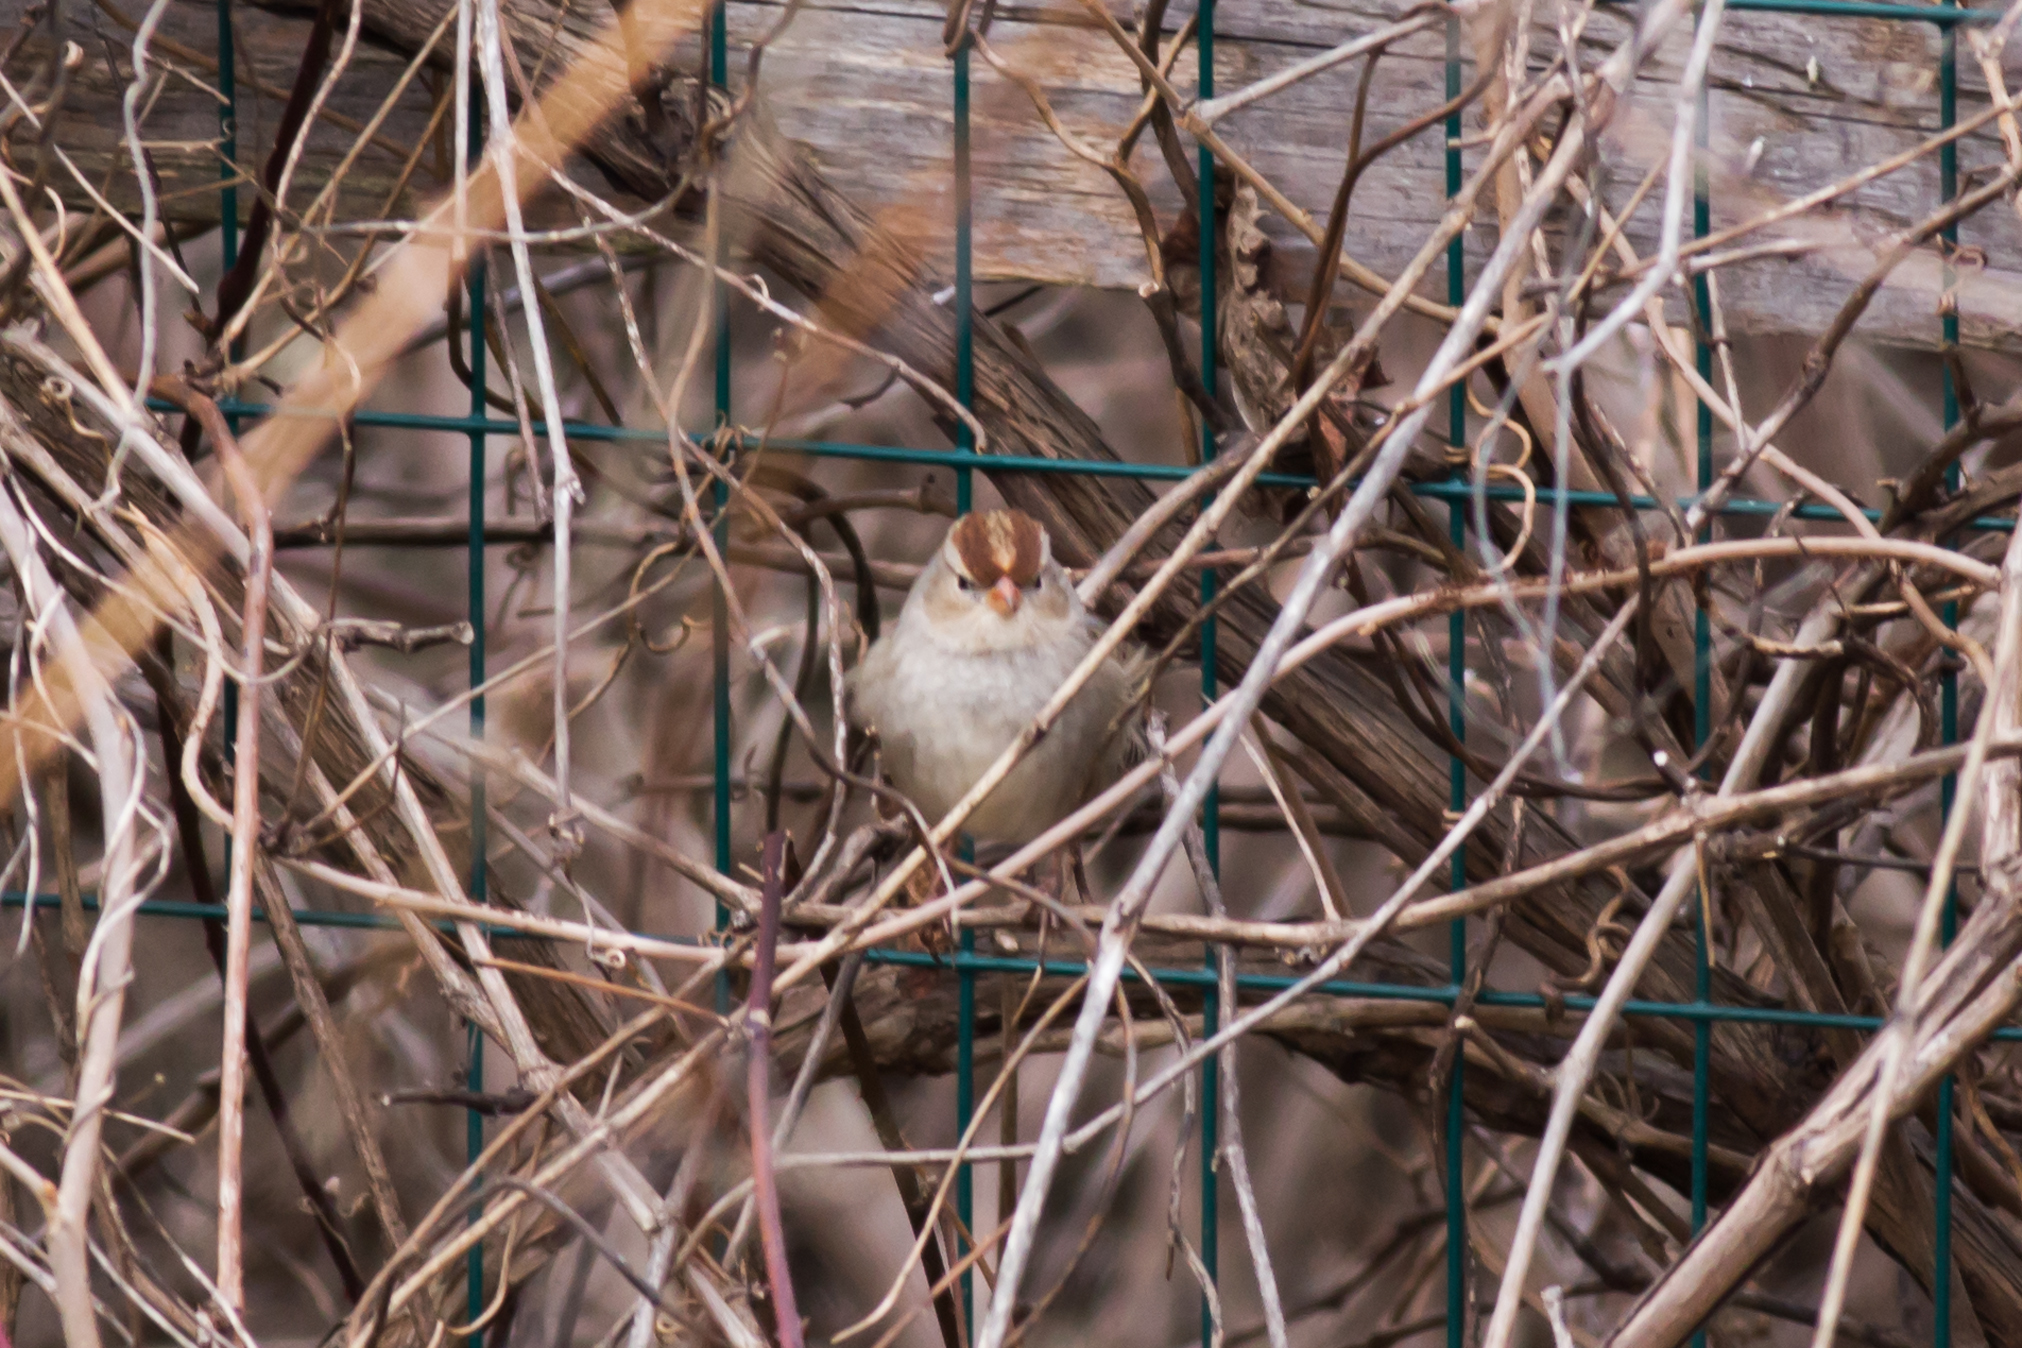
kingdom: Animalia
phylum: Chordata
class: Aves
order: Passeriformes
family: Passerellidae
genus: Zonotrichia
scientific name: Zonotrichia leucophrys
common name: White-crowned sparrow
